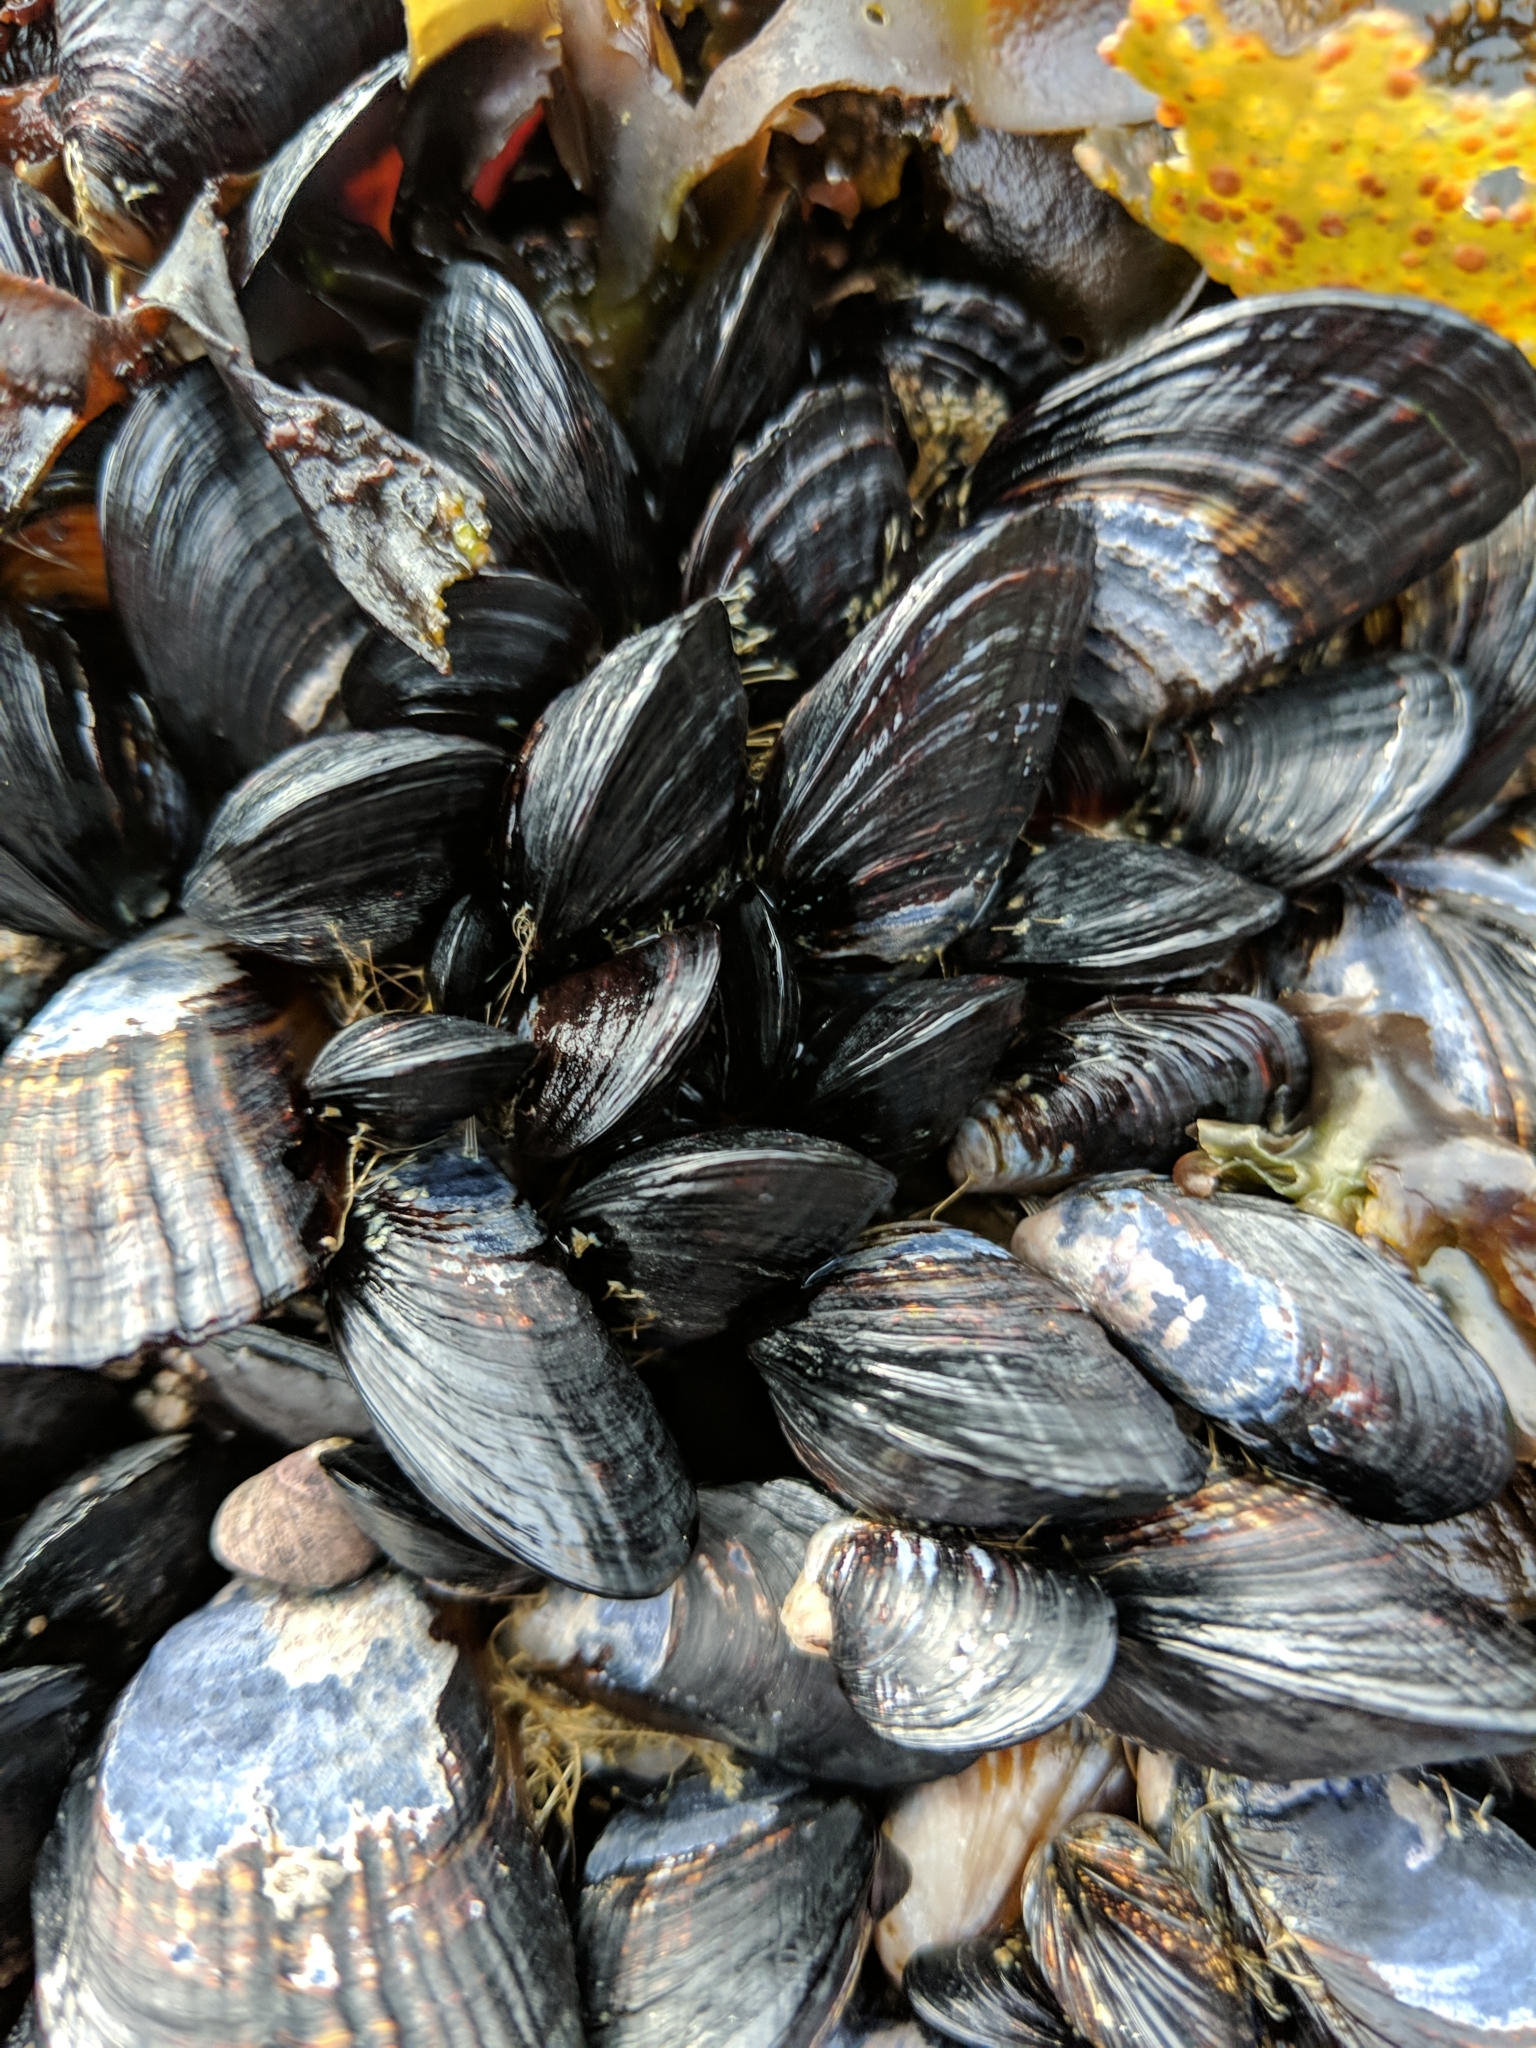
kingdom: Animalia
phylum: Mollusca
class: Bivalvia
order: Mytilida
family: Mytilidae
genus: Mytilus
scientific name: Mytilus californianus
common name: California mussel
